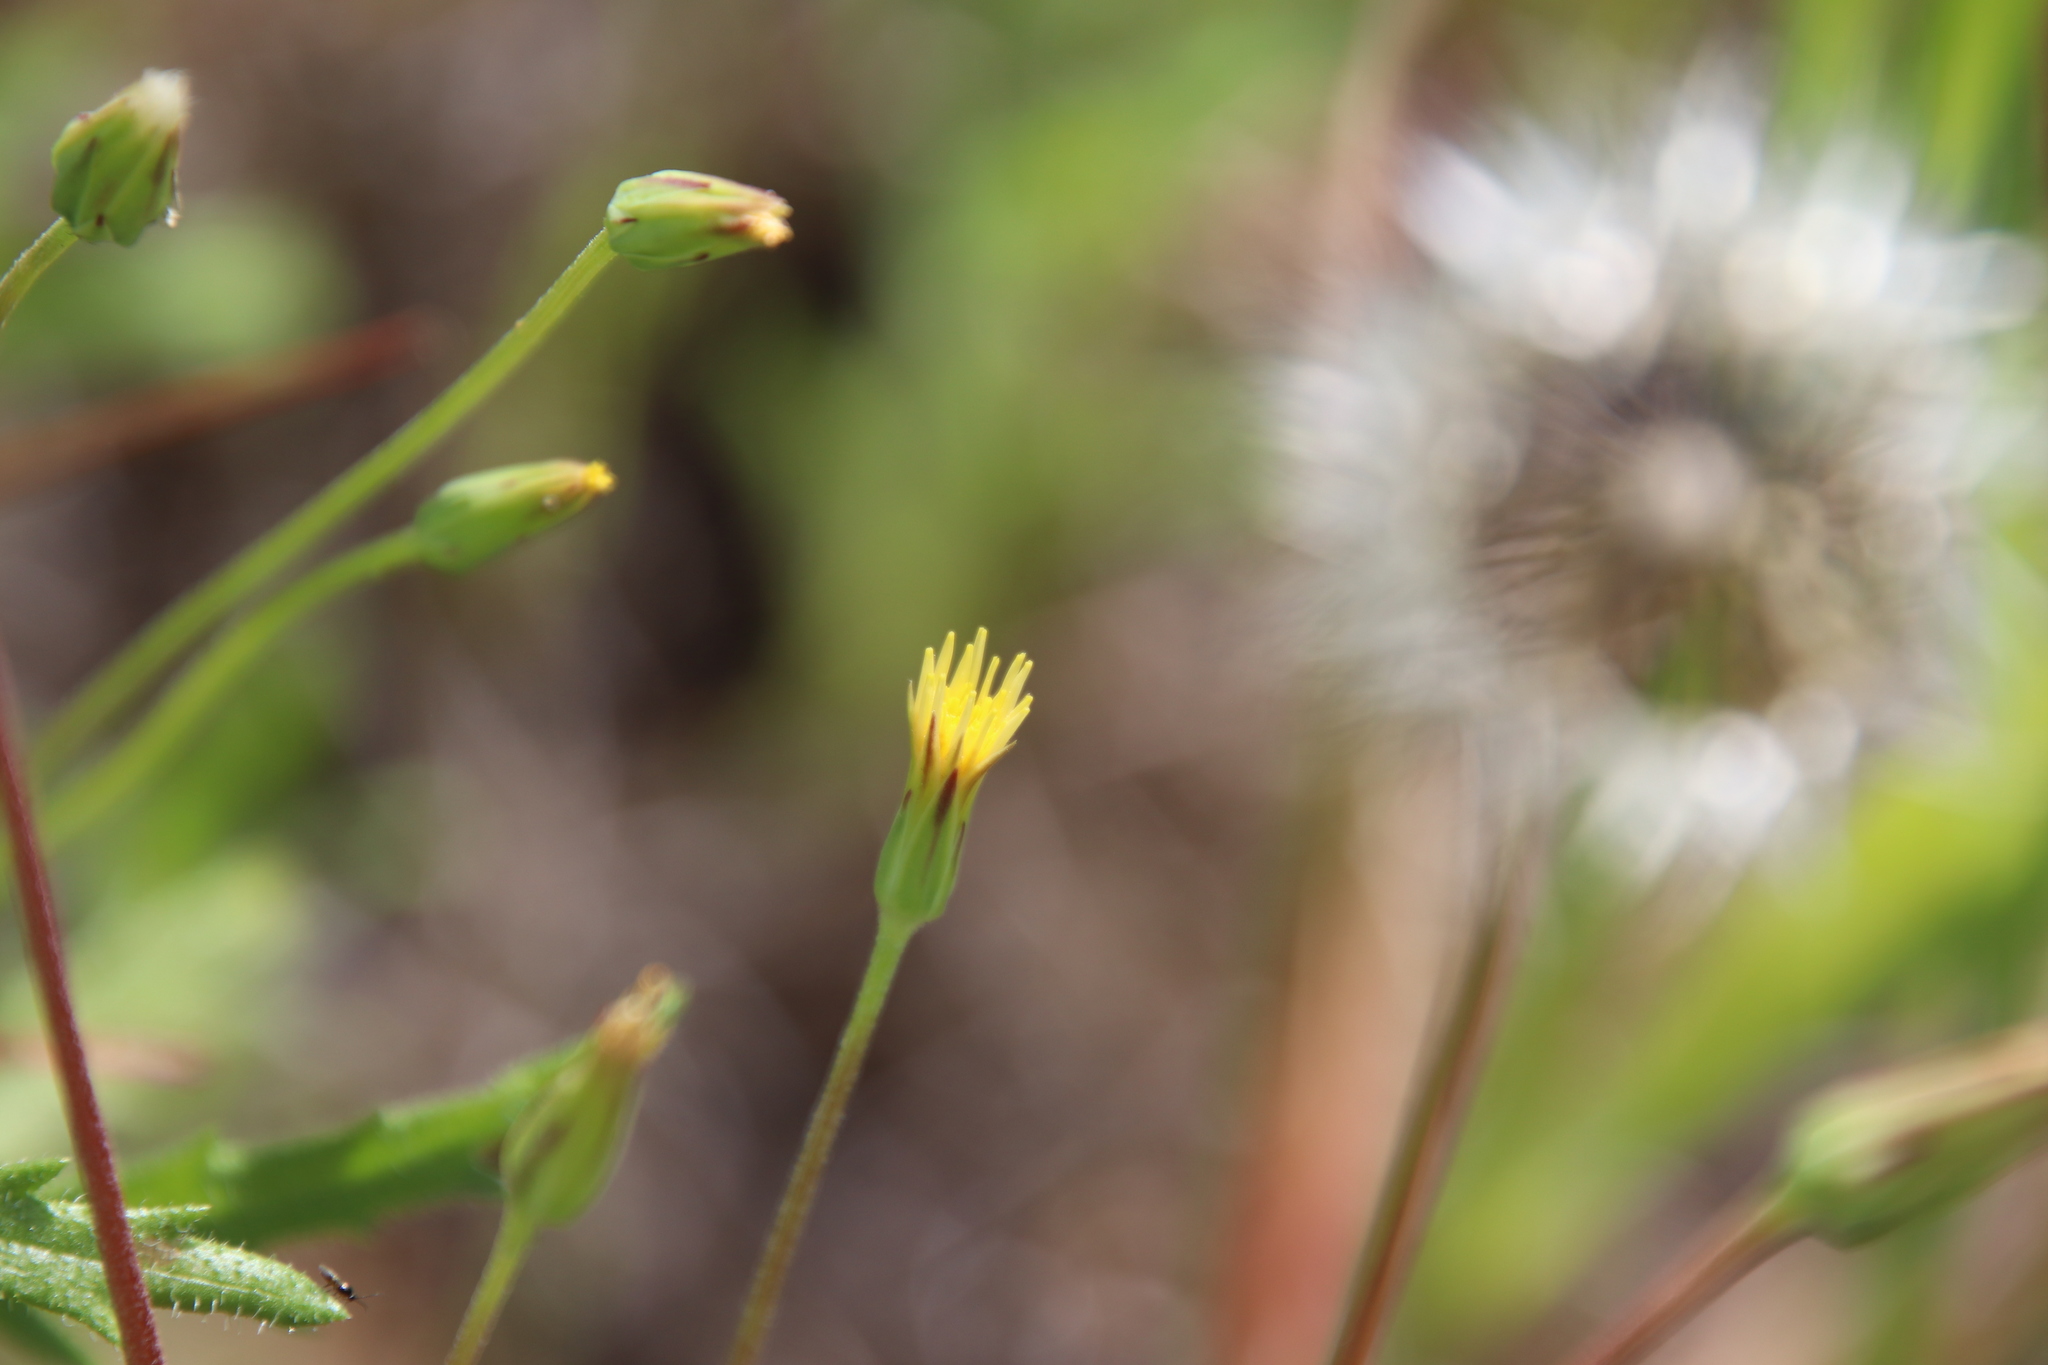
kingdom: Plantae
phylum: Tracheophyta
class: Magnoliopsida
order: Asterales
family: Asteraceae
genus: Microseris
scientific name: Microseris lindleyi
